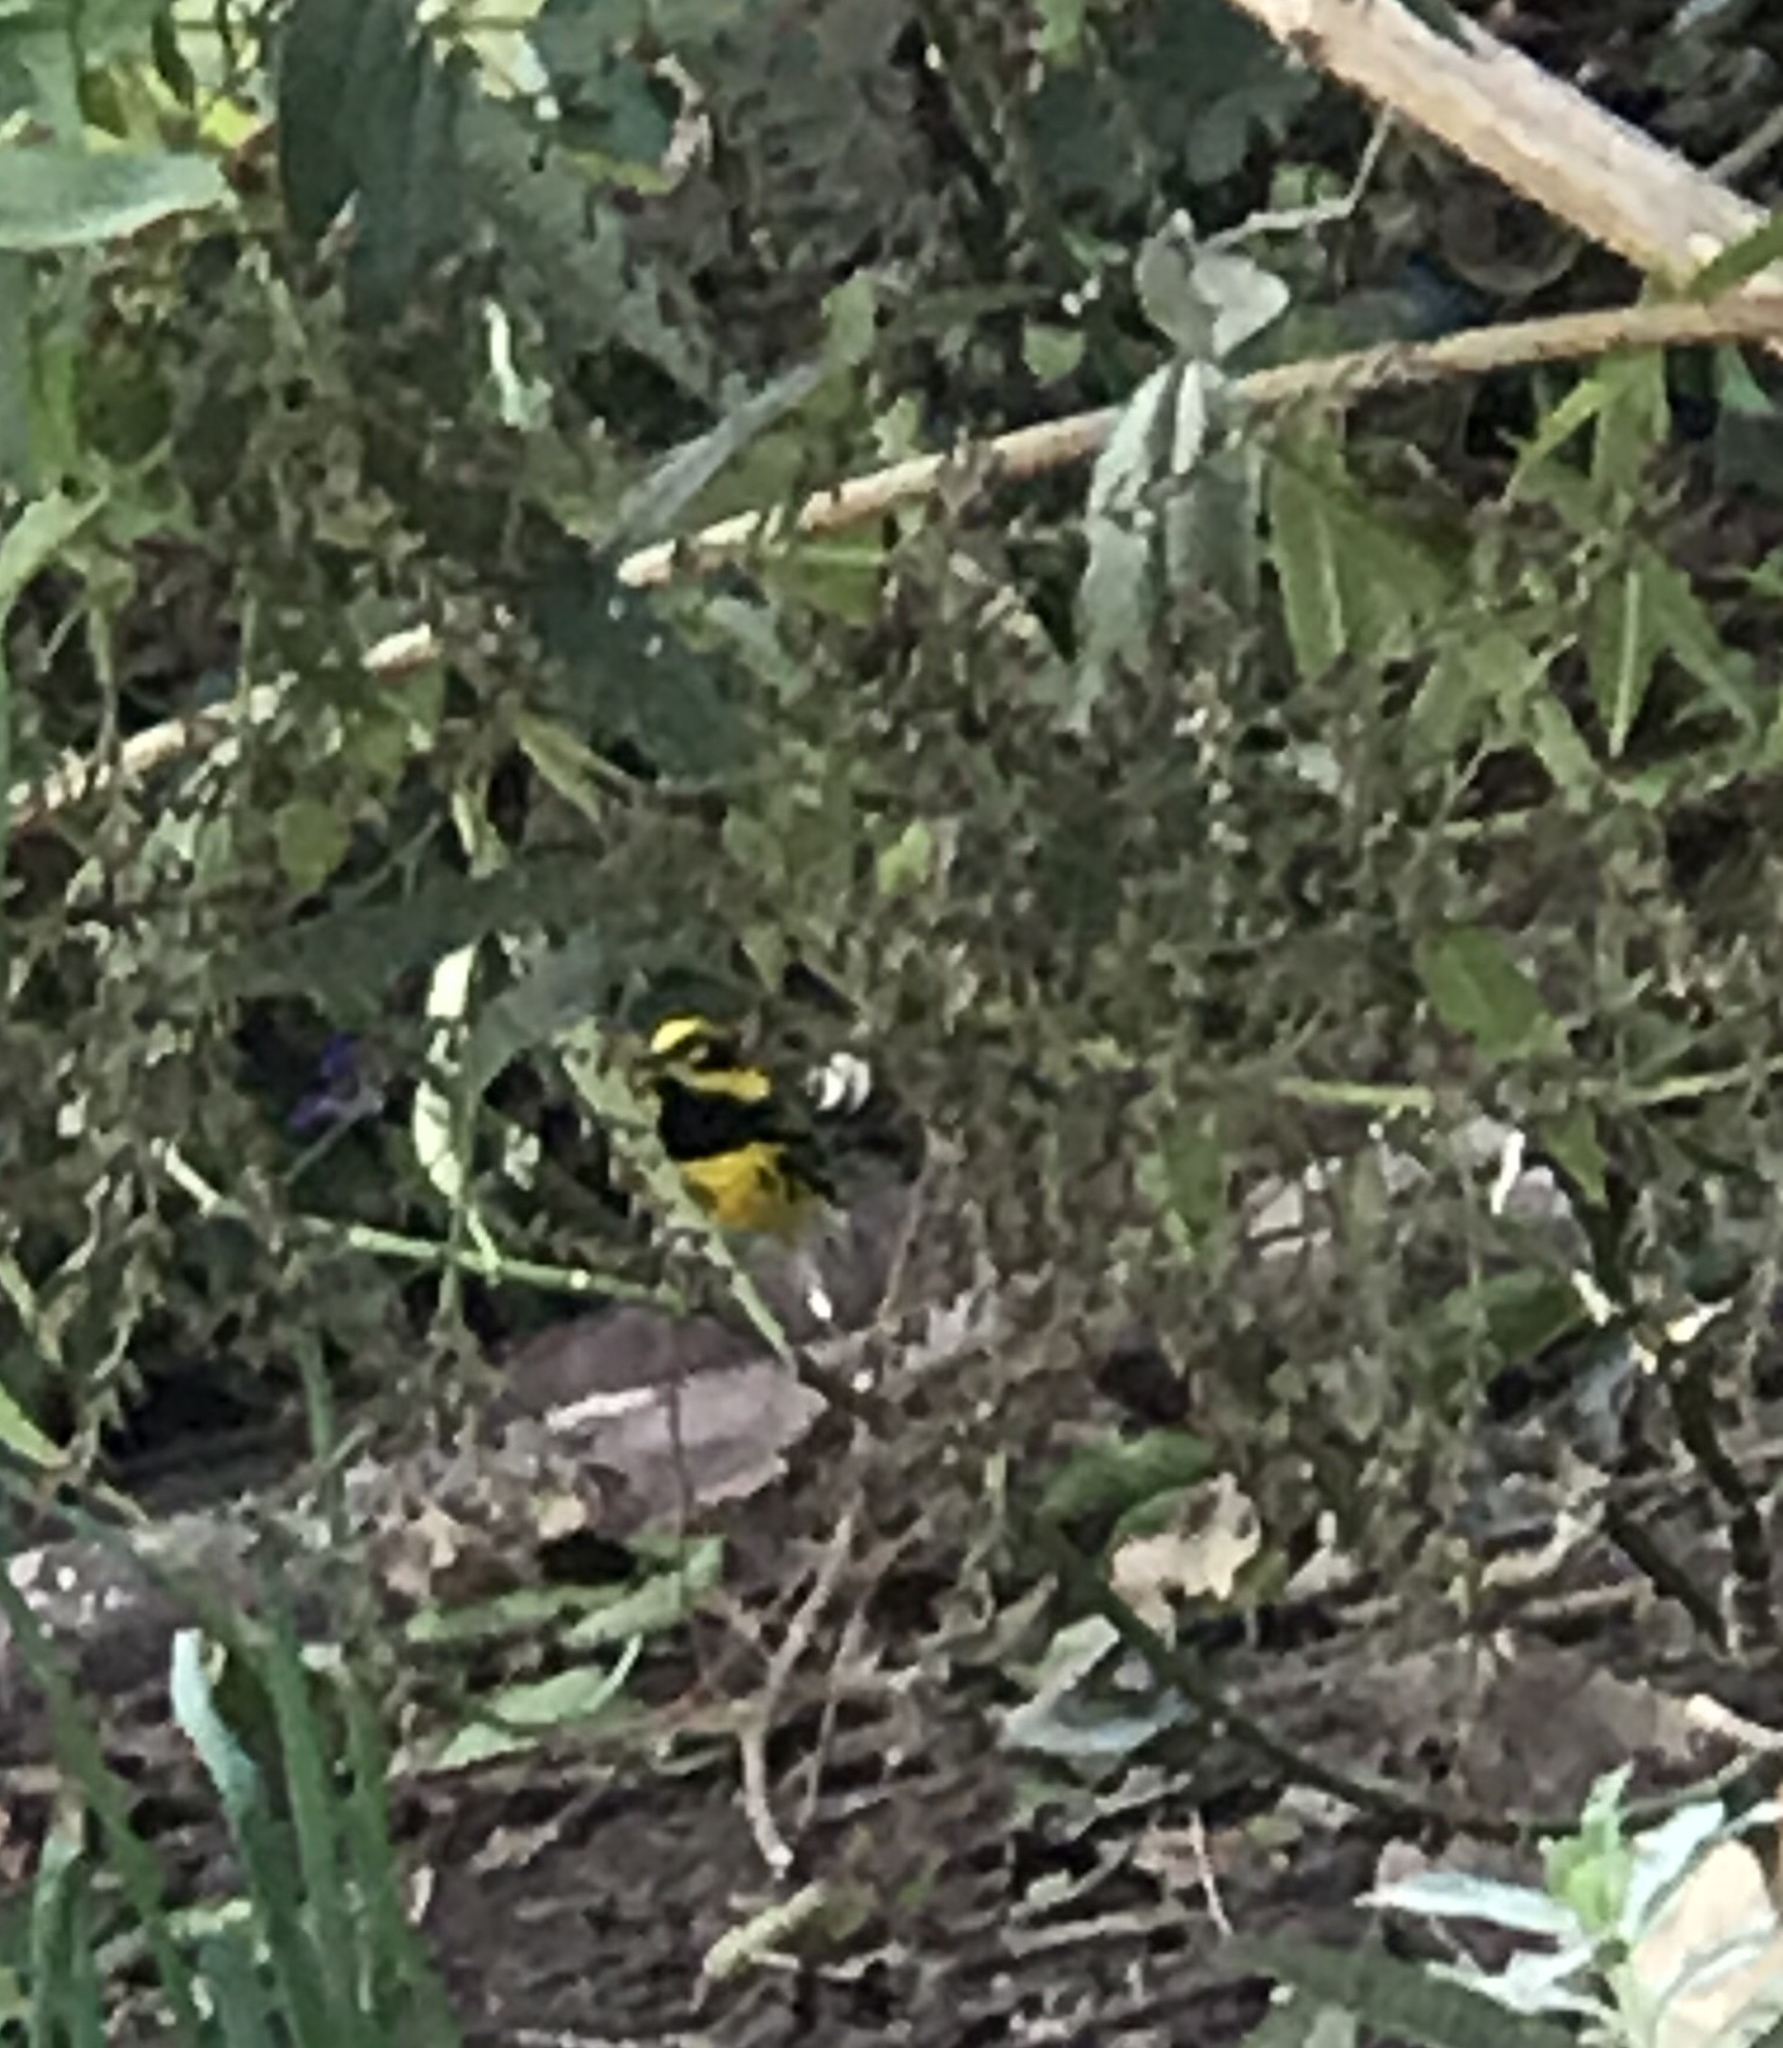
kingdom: Animalia
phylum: Chordata
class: Aves
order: Passeriformes
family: Parulidae
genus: Setophaga
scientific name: Setophaga townsendi
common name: Townsend's warbler
